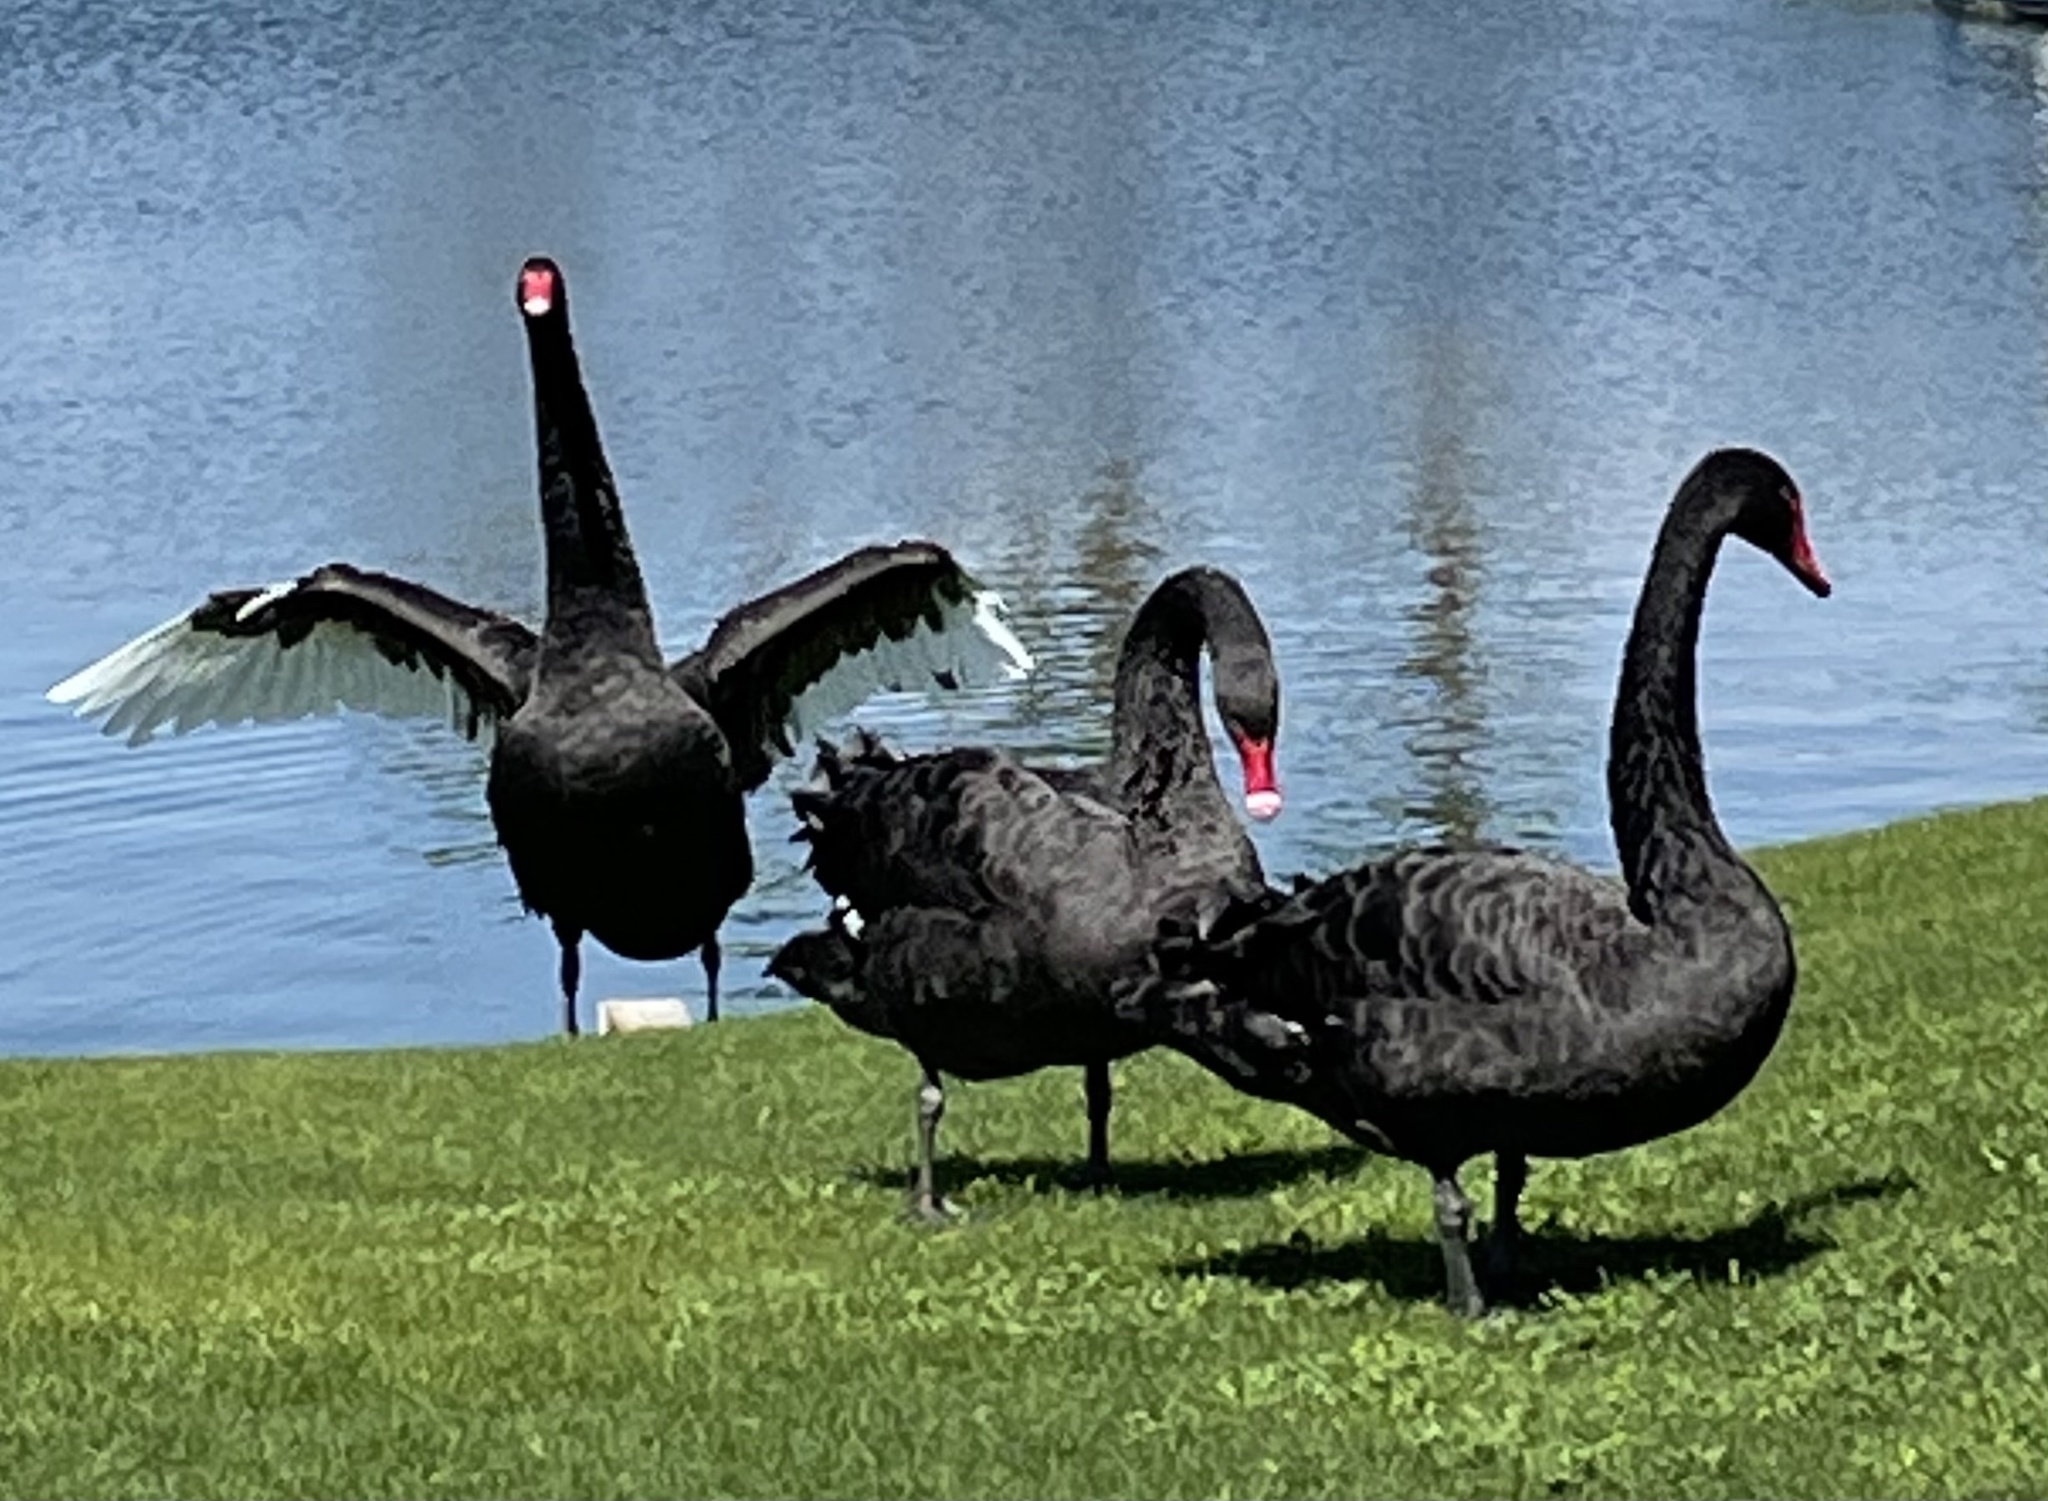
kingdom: Animalia
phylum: Chordata
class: Aves
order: Anseriformes
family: Anatidae
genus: Cygnus
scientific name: Cygnus atratus
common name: Black swan
